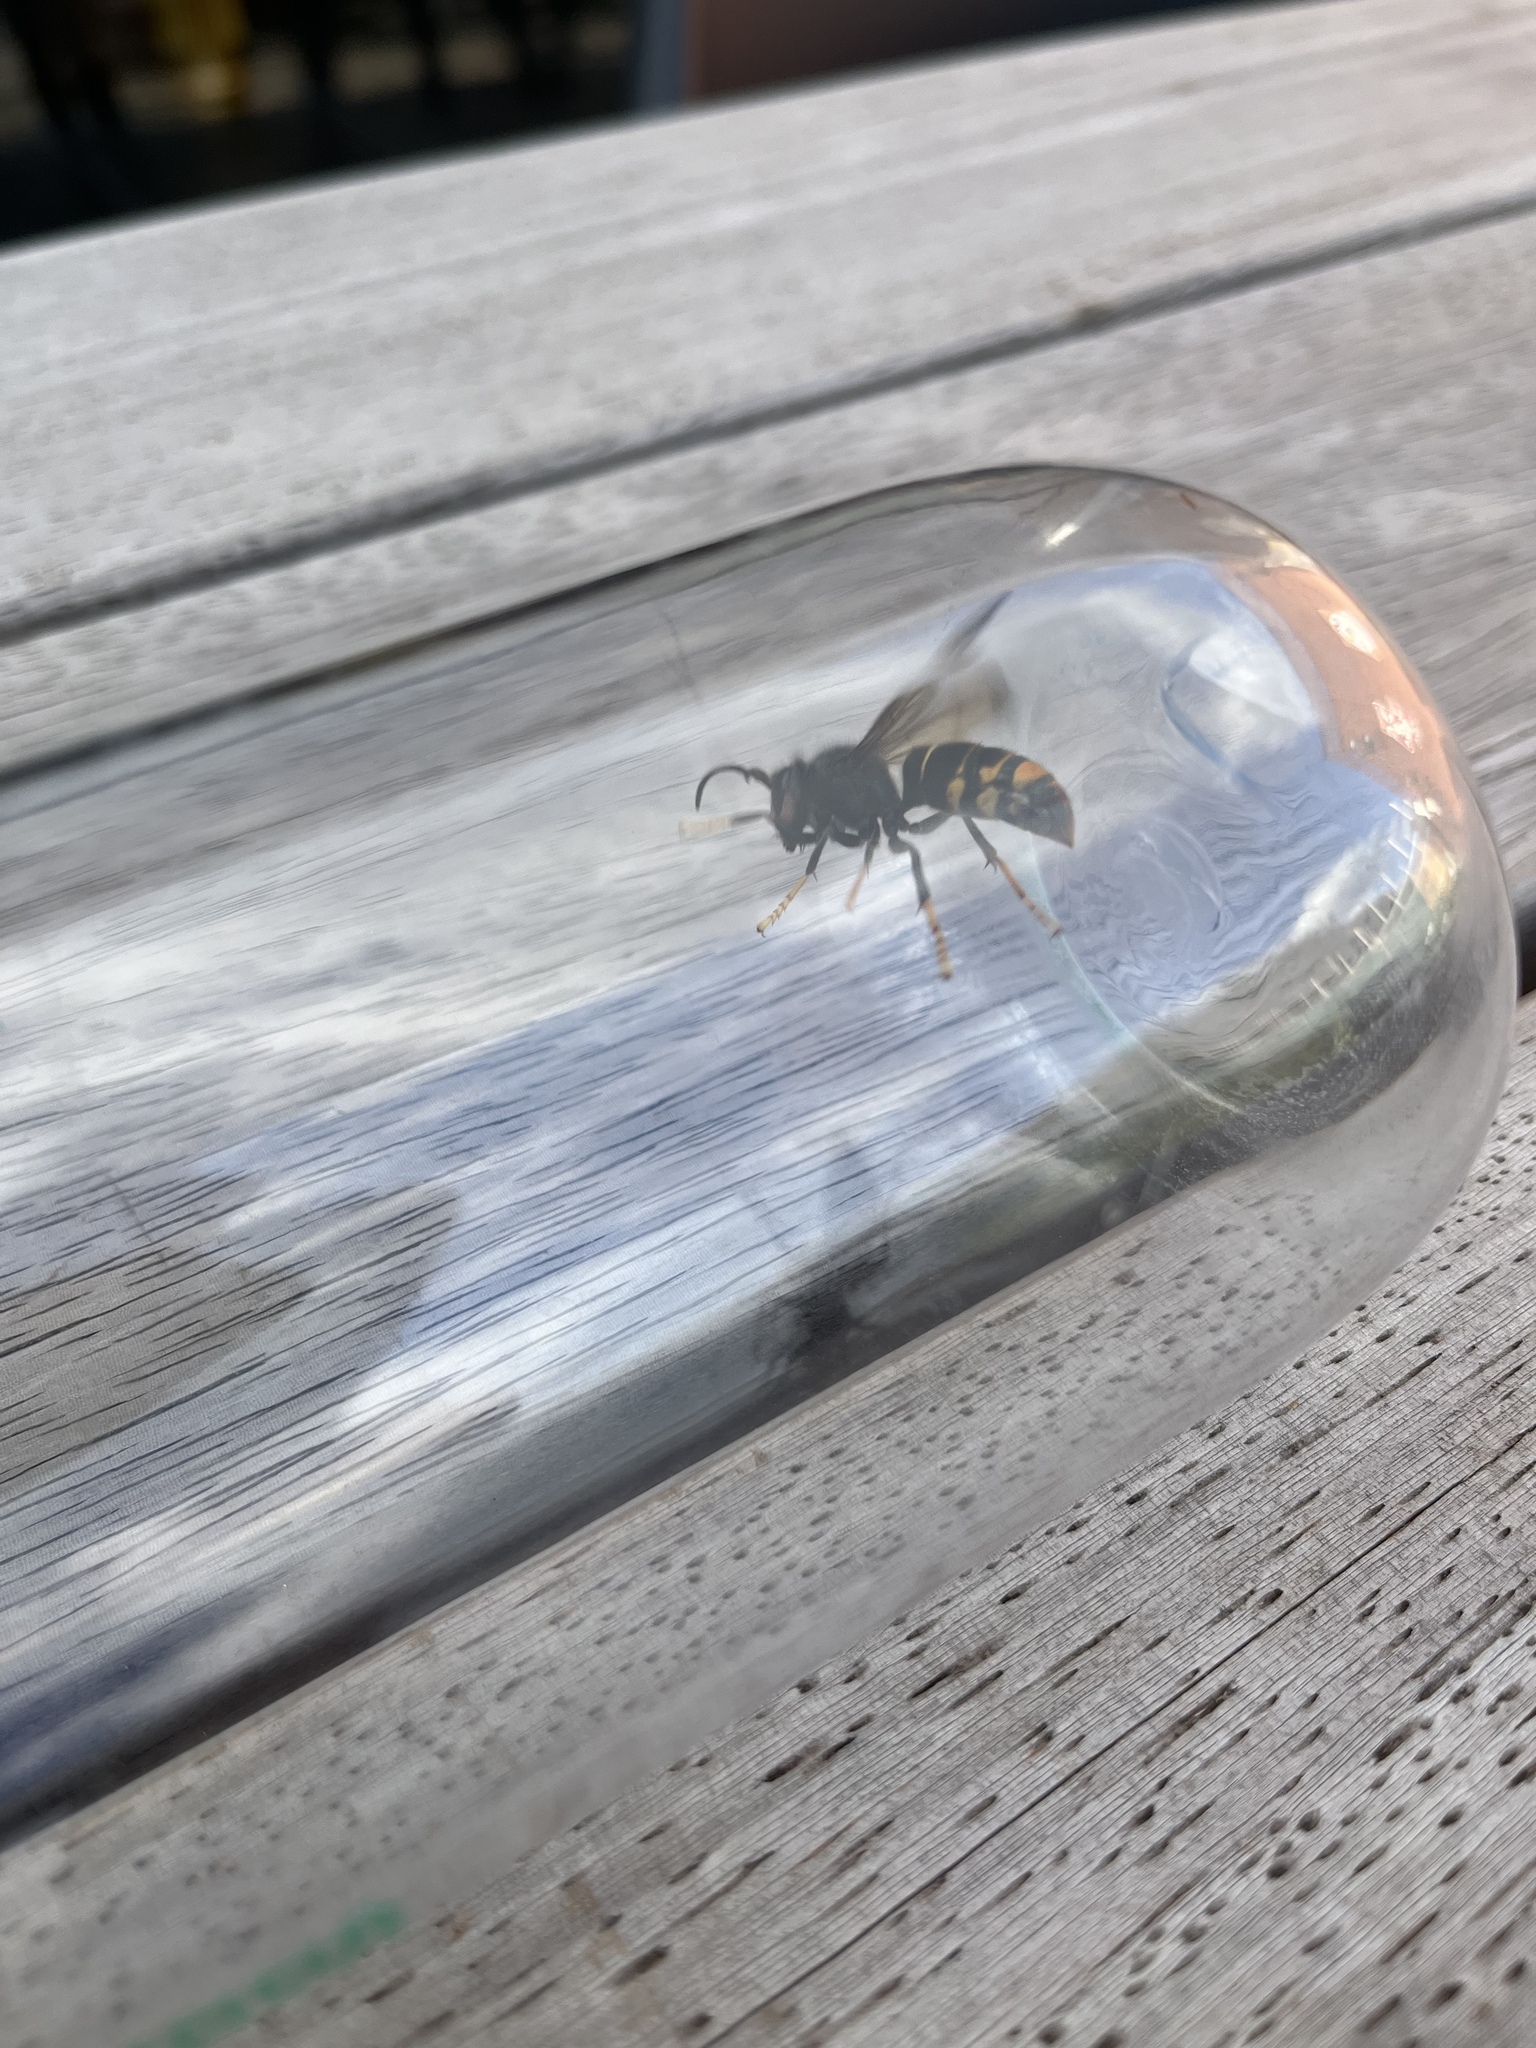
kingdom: Animalia
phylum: Arthropoda
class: Insecta
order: Hymenoptera
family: Vespidae
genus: Vespa
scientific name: Vespa velutina
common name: Asian hornet
